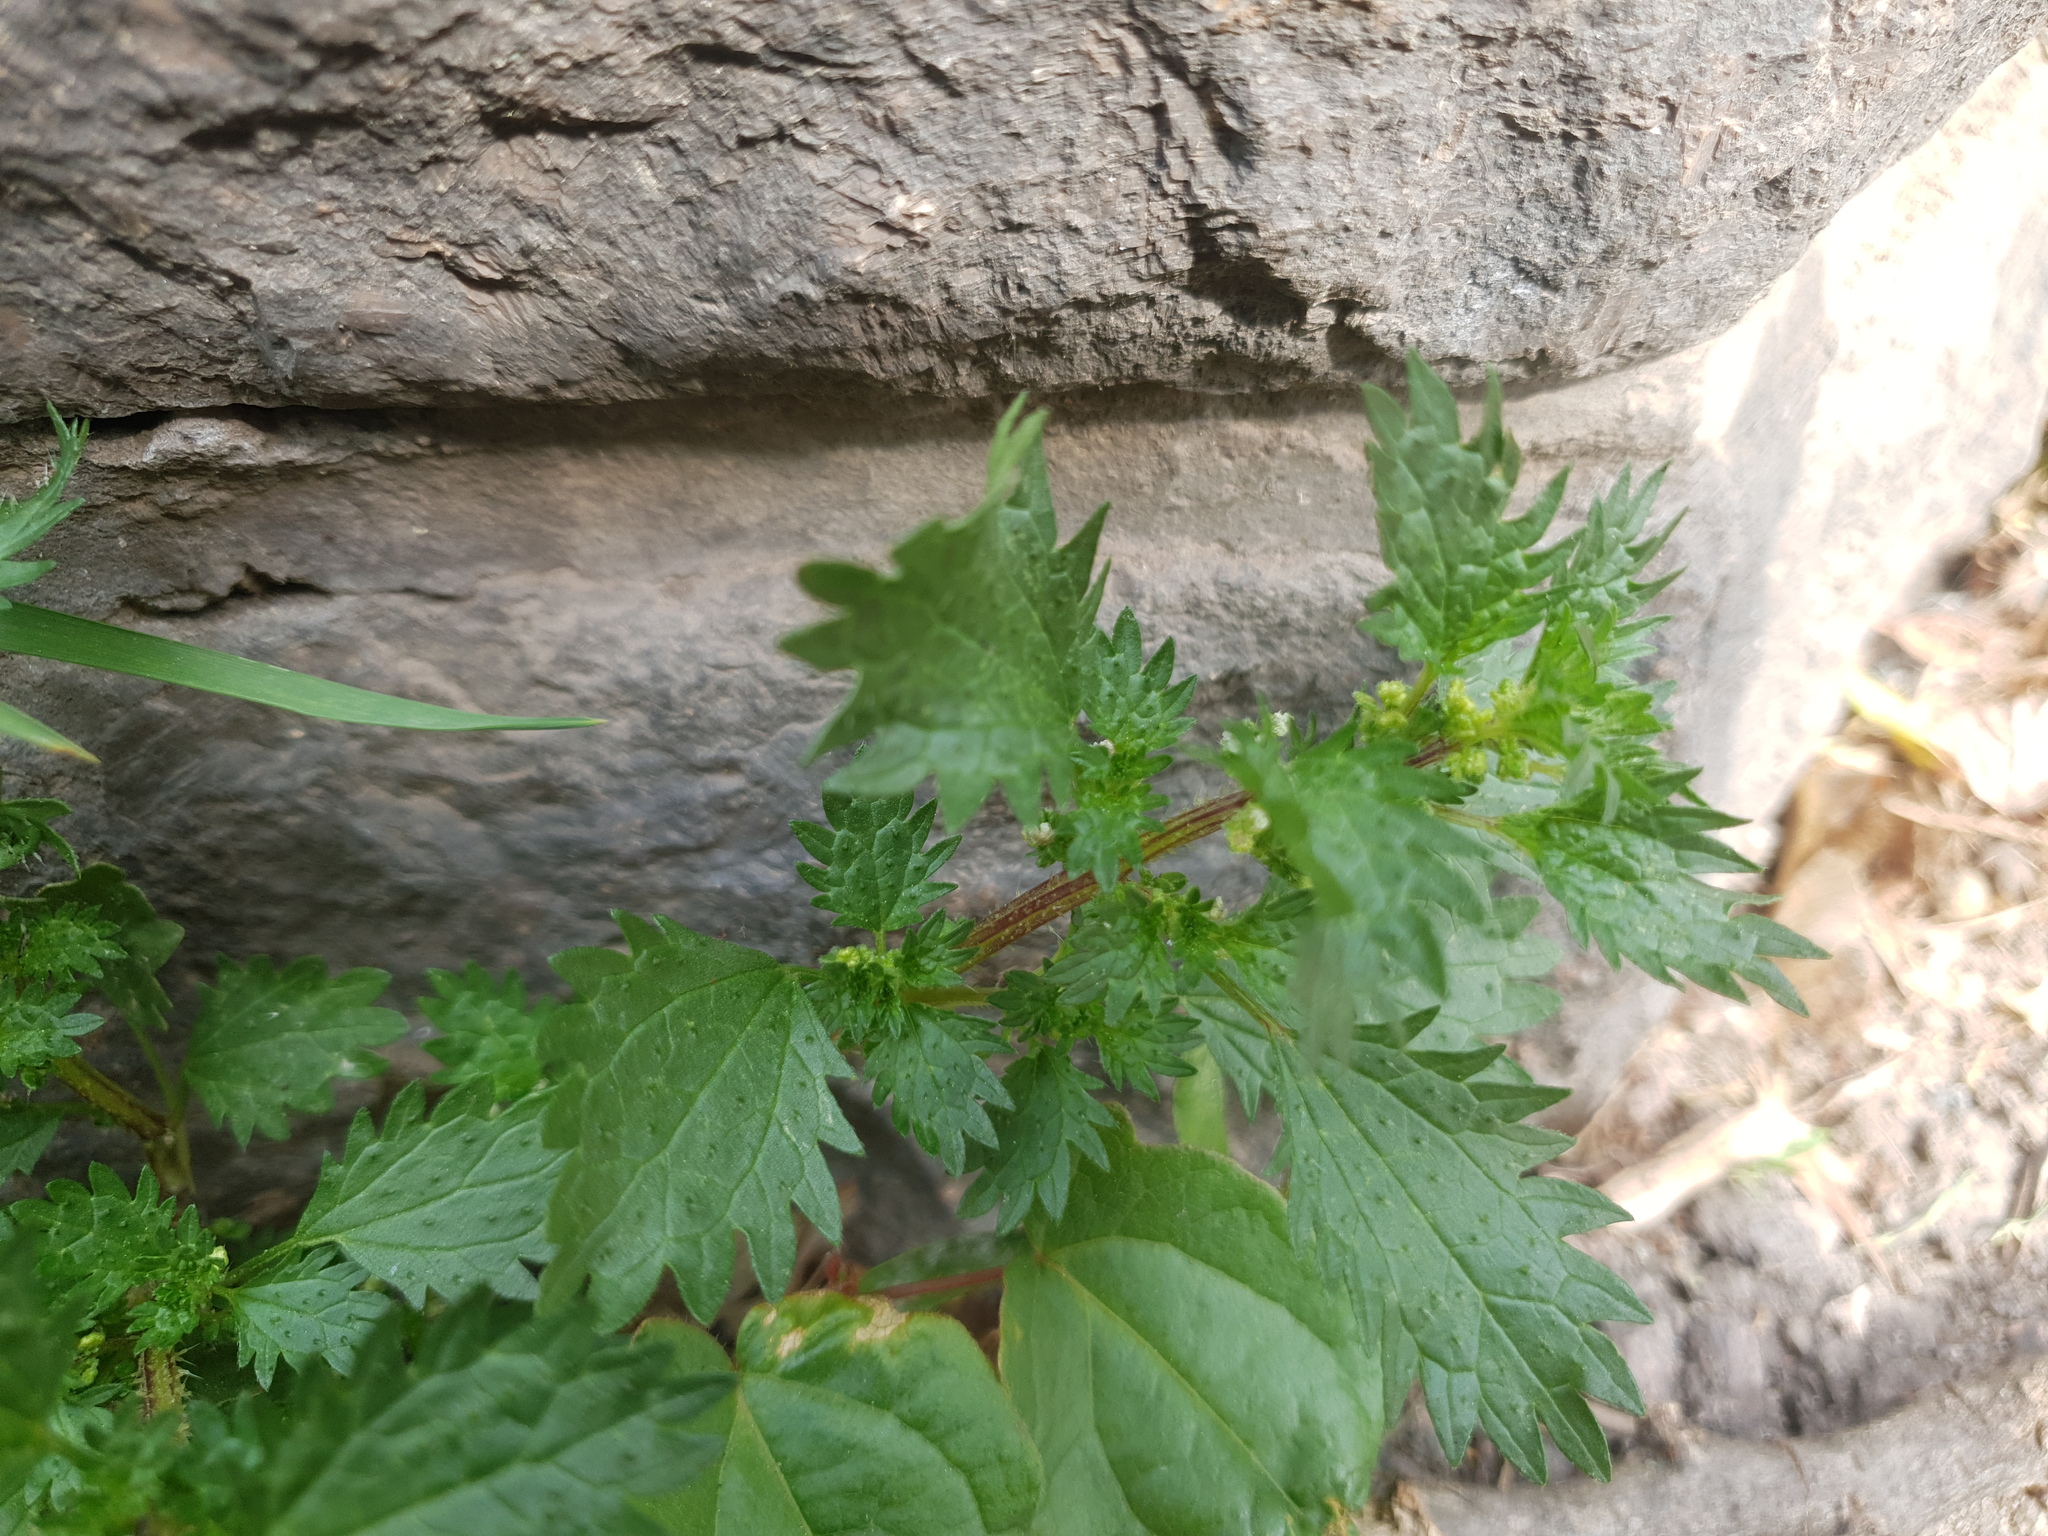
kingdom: Plantae
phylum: Tracheophyta
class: Magnoliopsida
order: Rosales
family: Urticaceae
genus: Urtica
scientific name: Urtica urens
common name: Dwarf nettle
